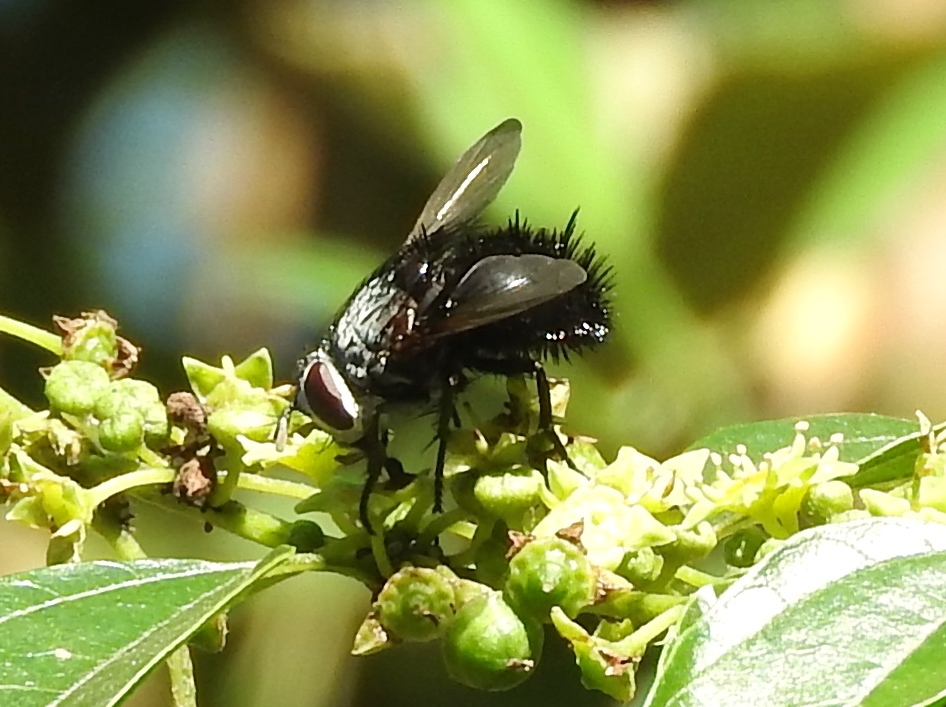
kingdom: Animalia
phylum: Arthropoda
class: Insecta
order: Diptera
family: Tachinidae
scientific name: Tachinidae
